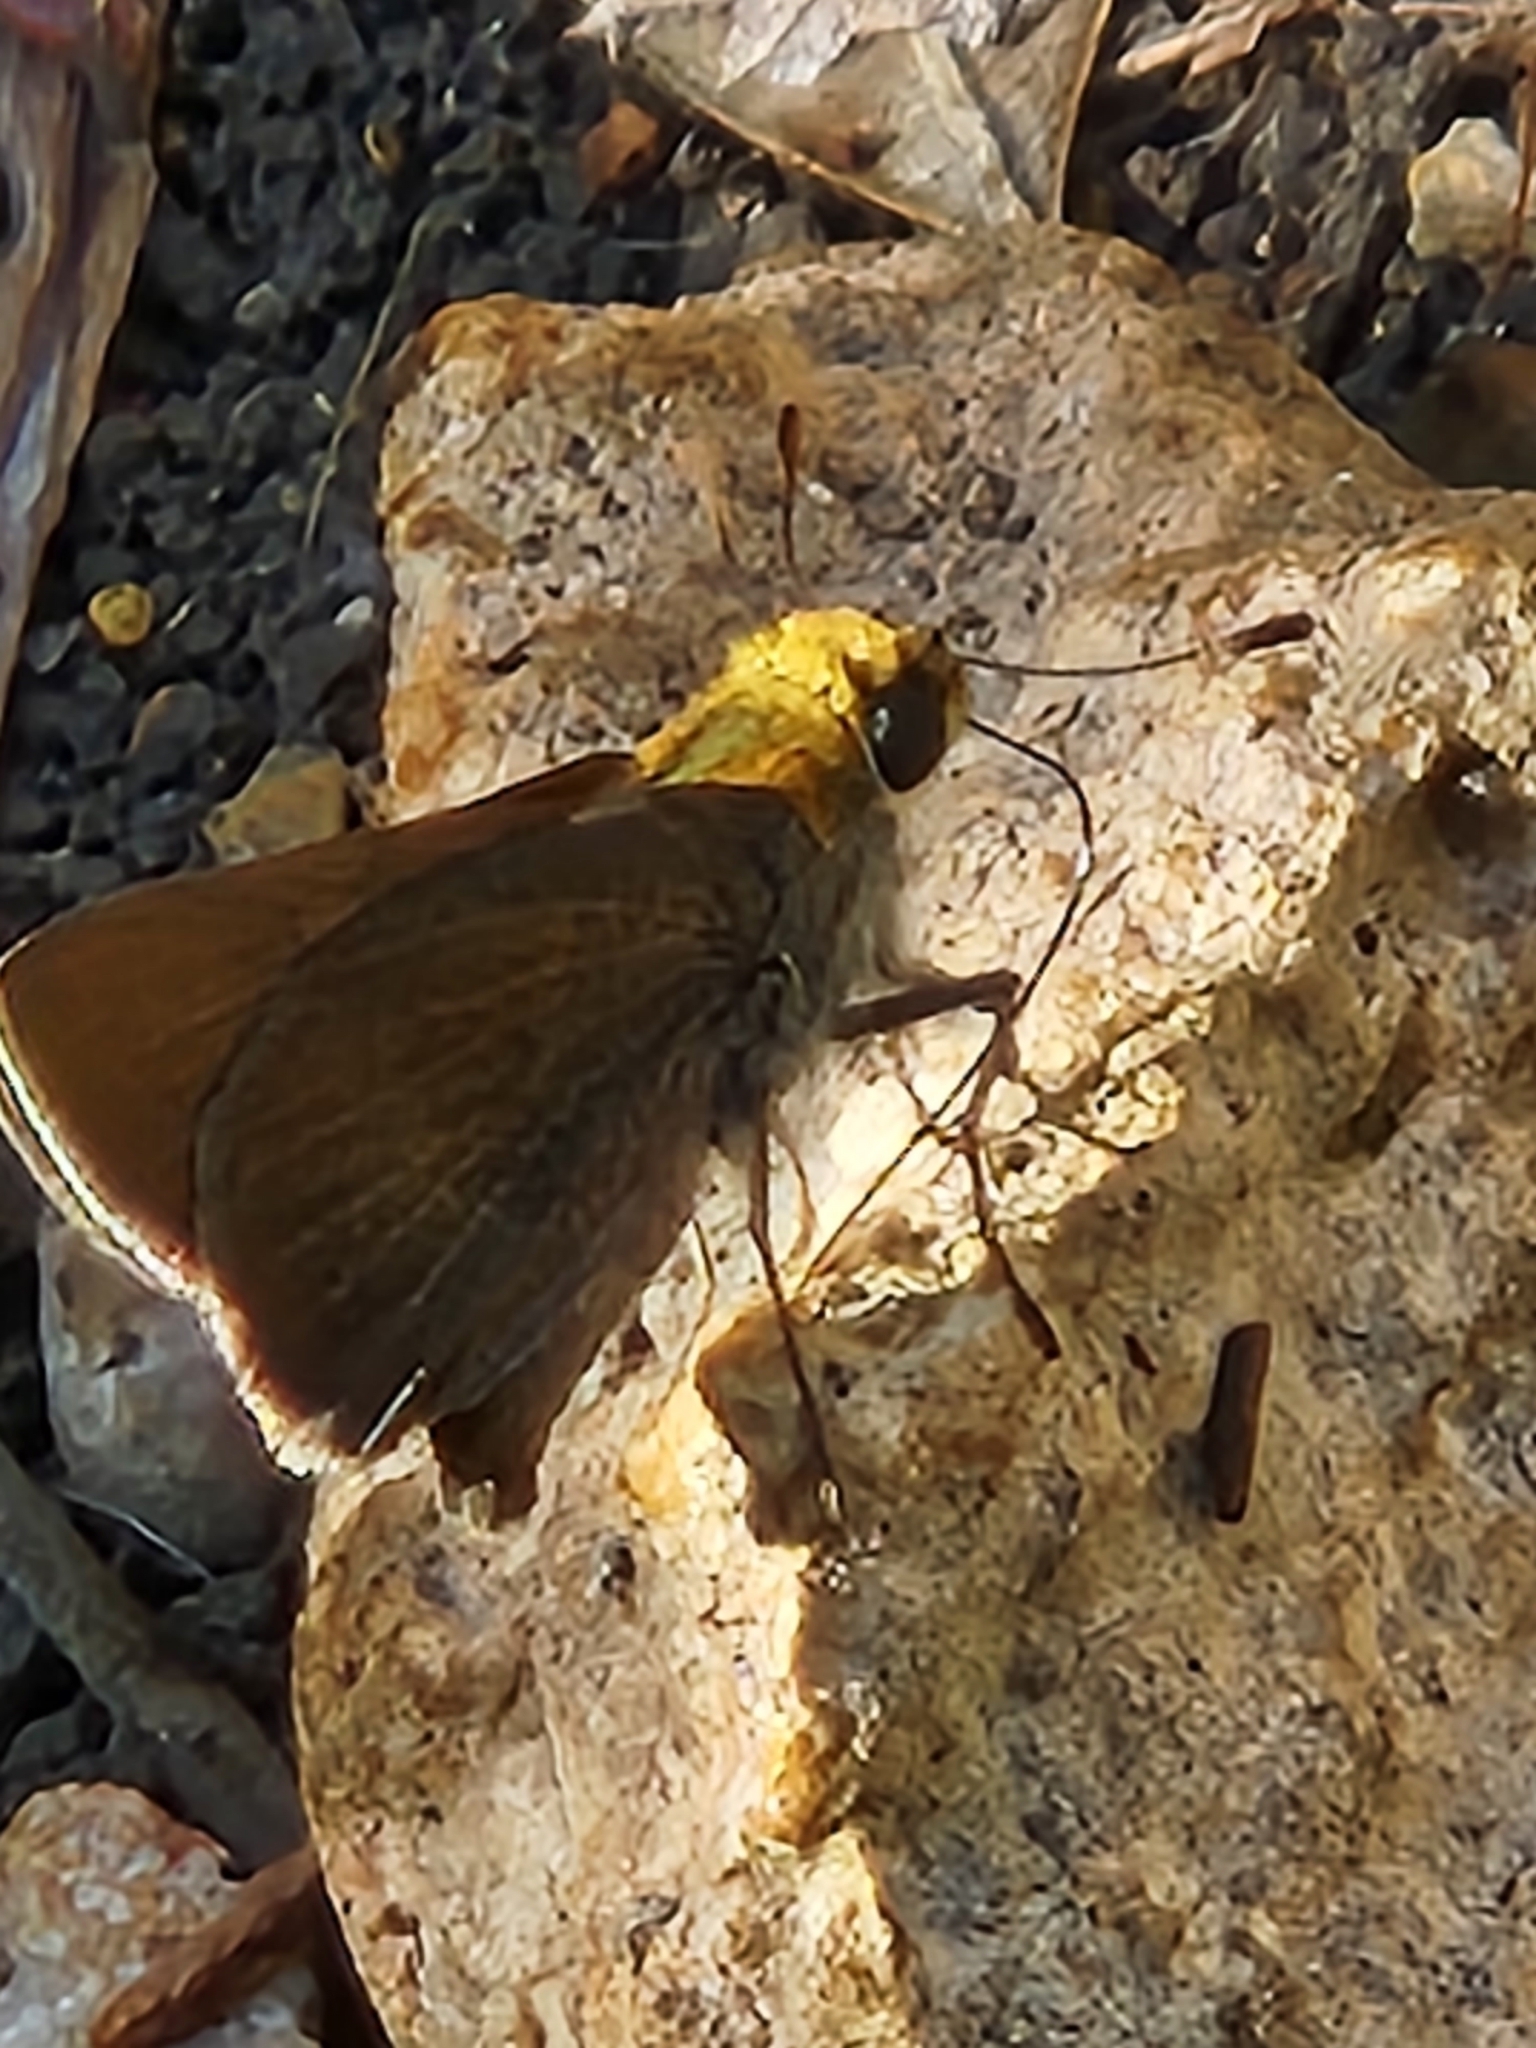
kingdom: Animalia
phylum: Arthropoda
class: Insecta
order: Lepidoptera
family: Hesperiidae
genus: Euphyes
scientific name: Euphyes vestris
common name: Dun skipper
